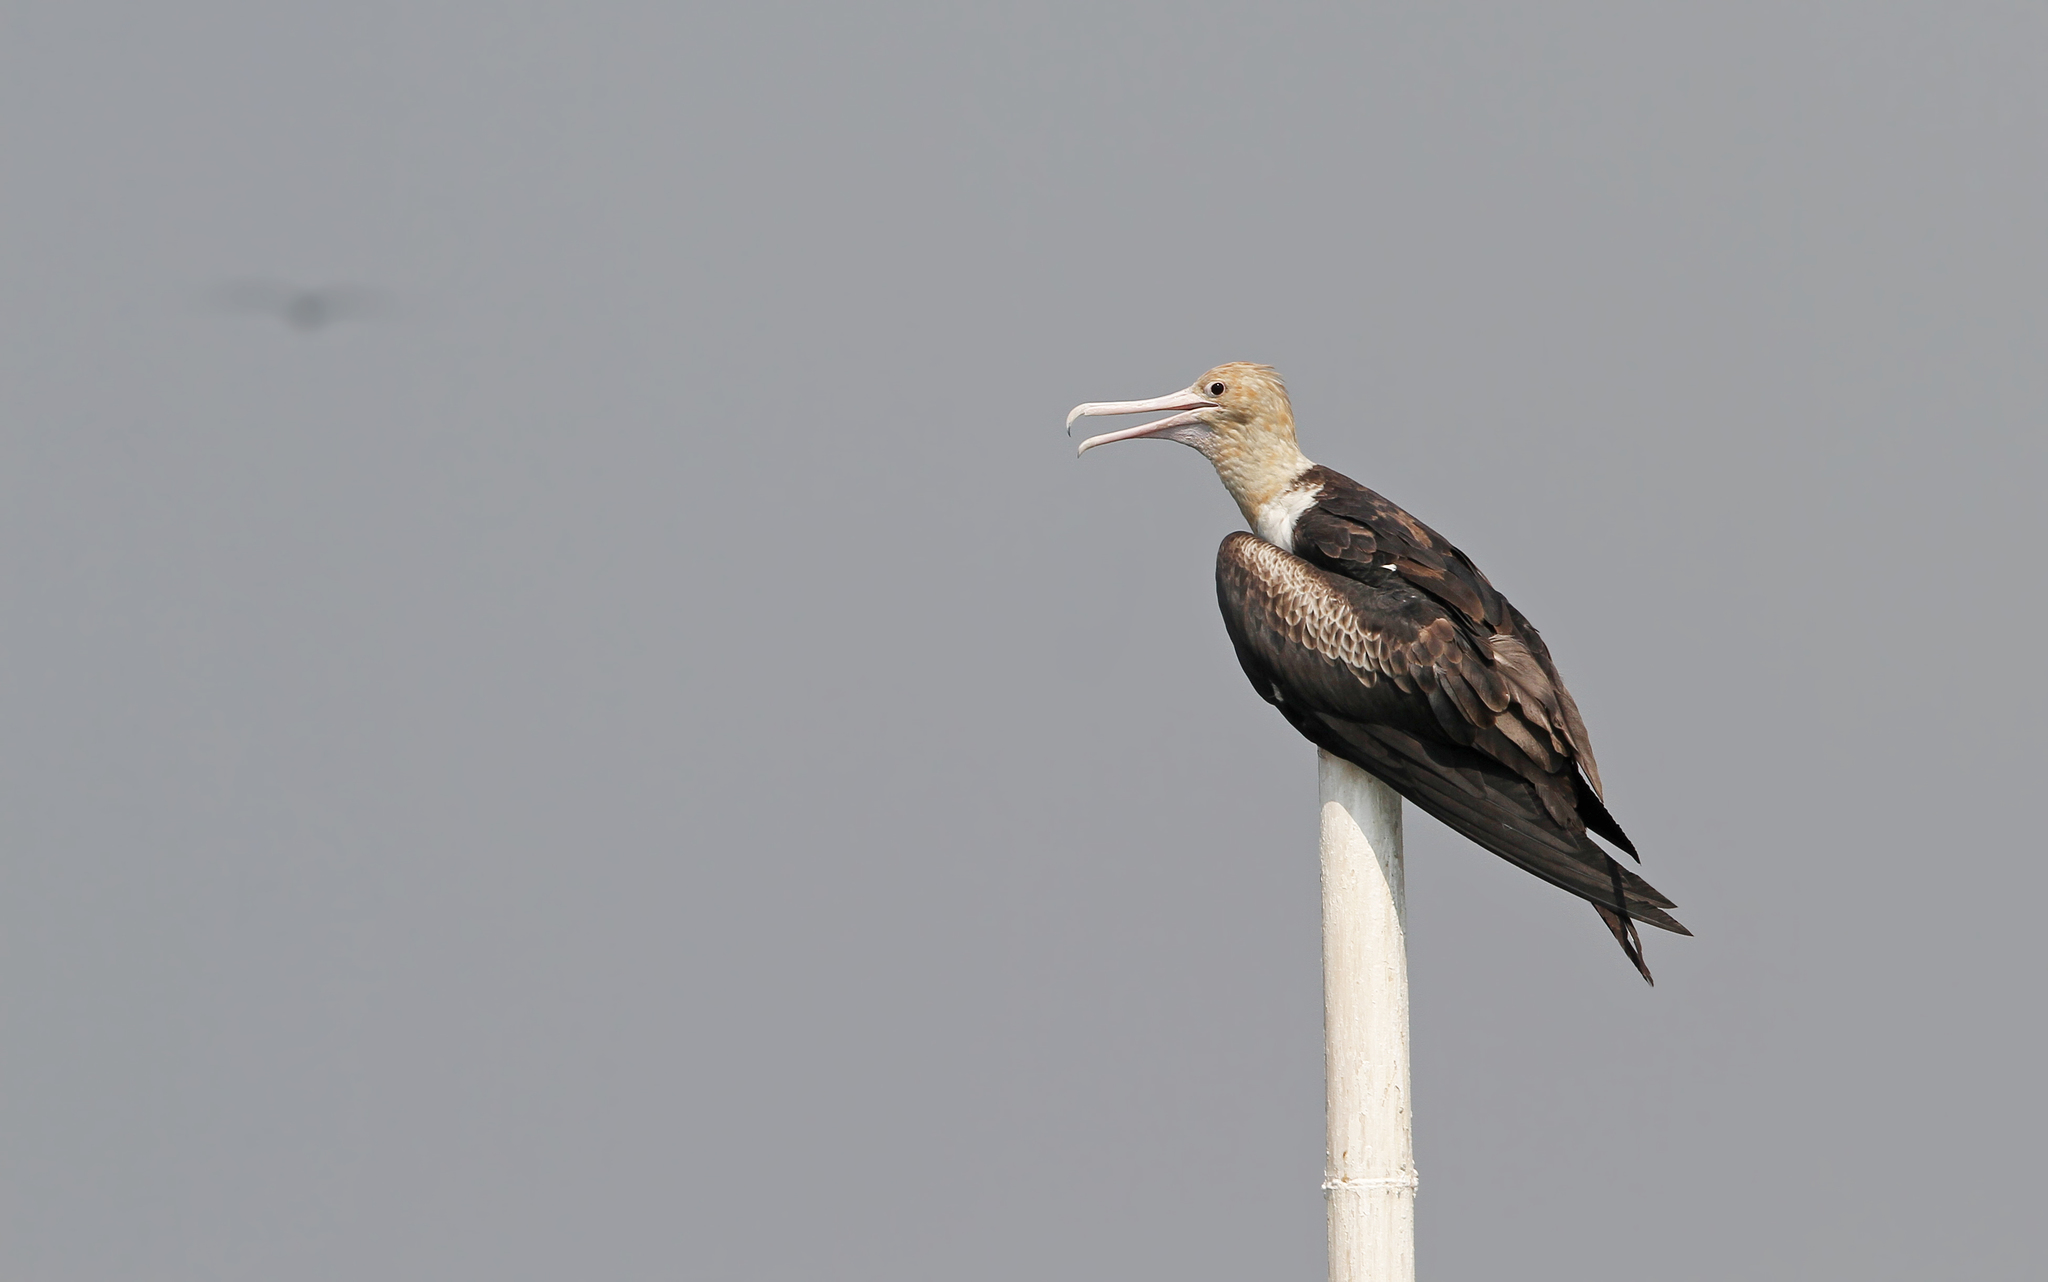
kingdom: Animalia
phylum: Chordata
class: Aves
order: Suliformes
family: Fregatidae
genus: Fregata
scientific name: Fregata andrewsi
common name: Christmas frigatebird
